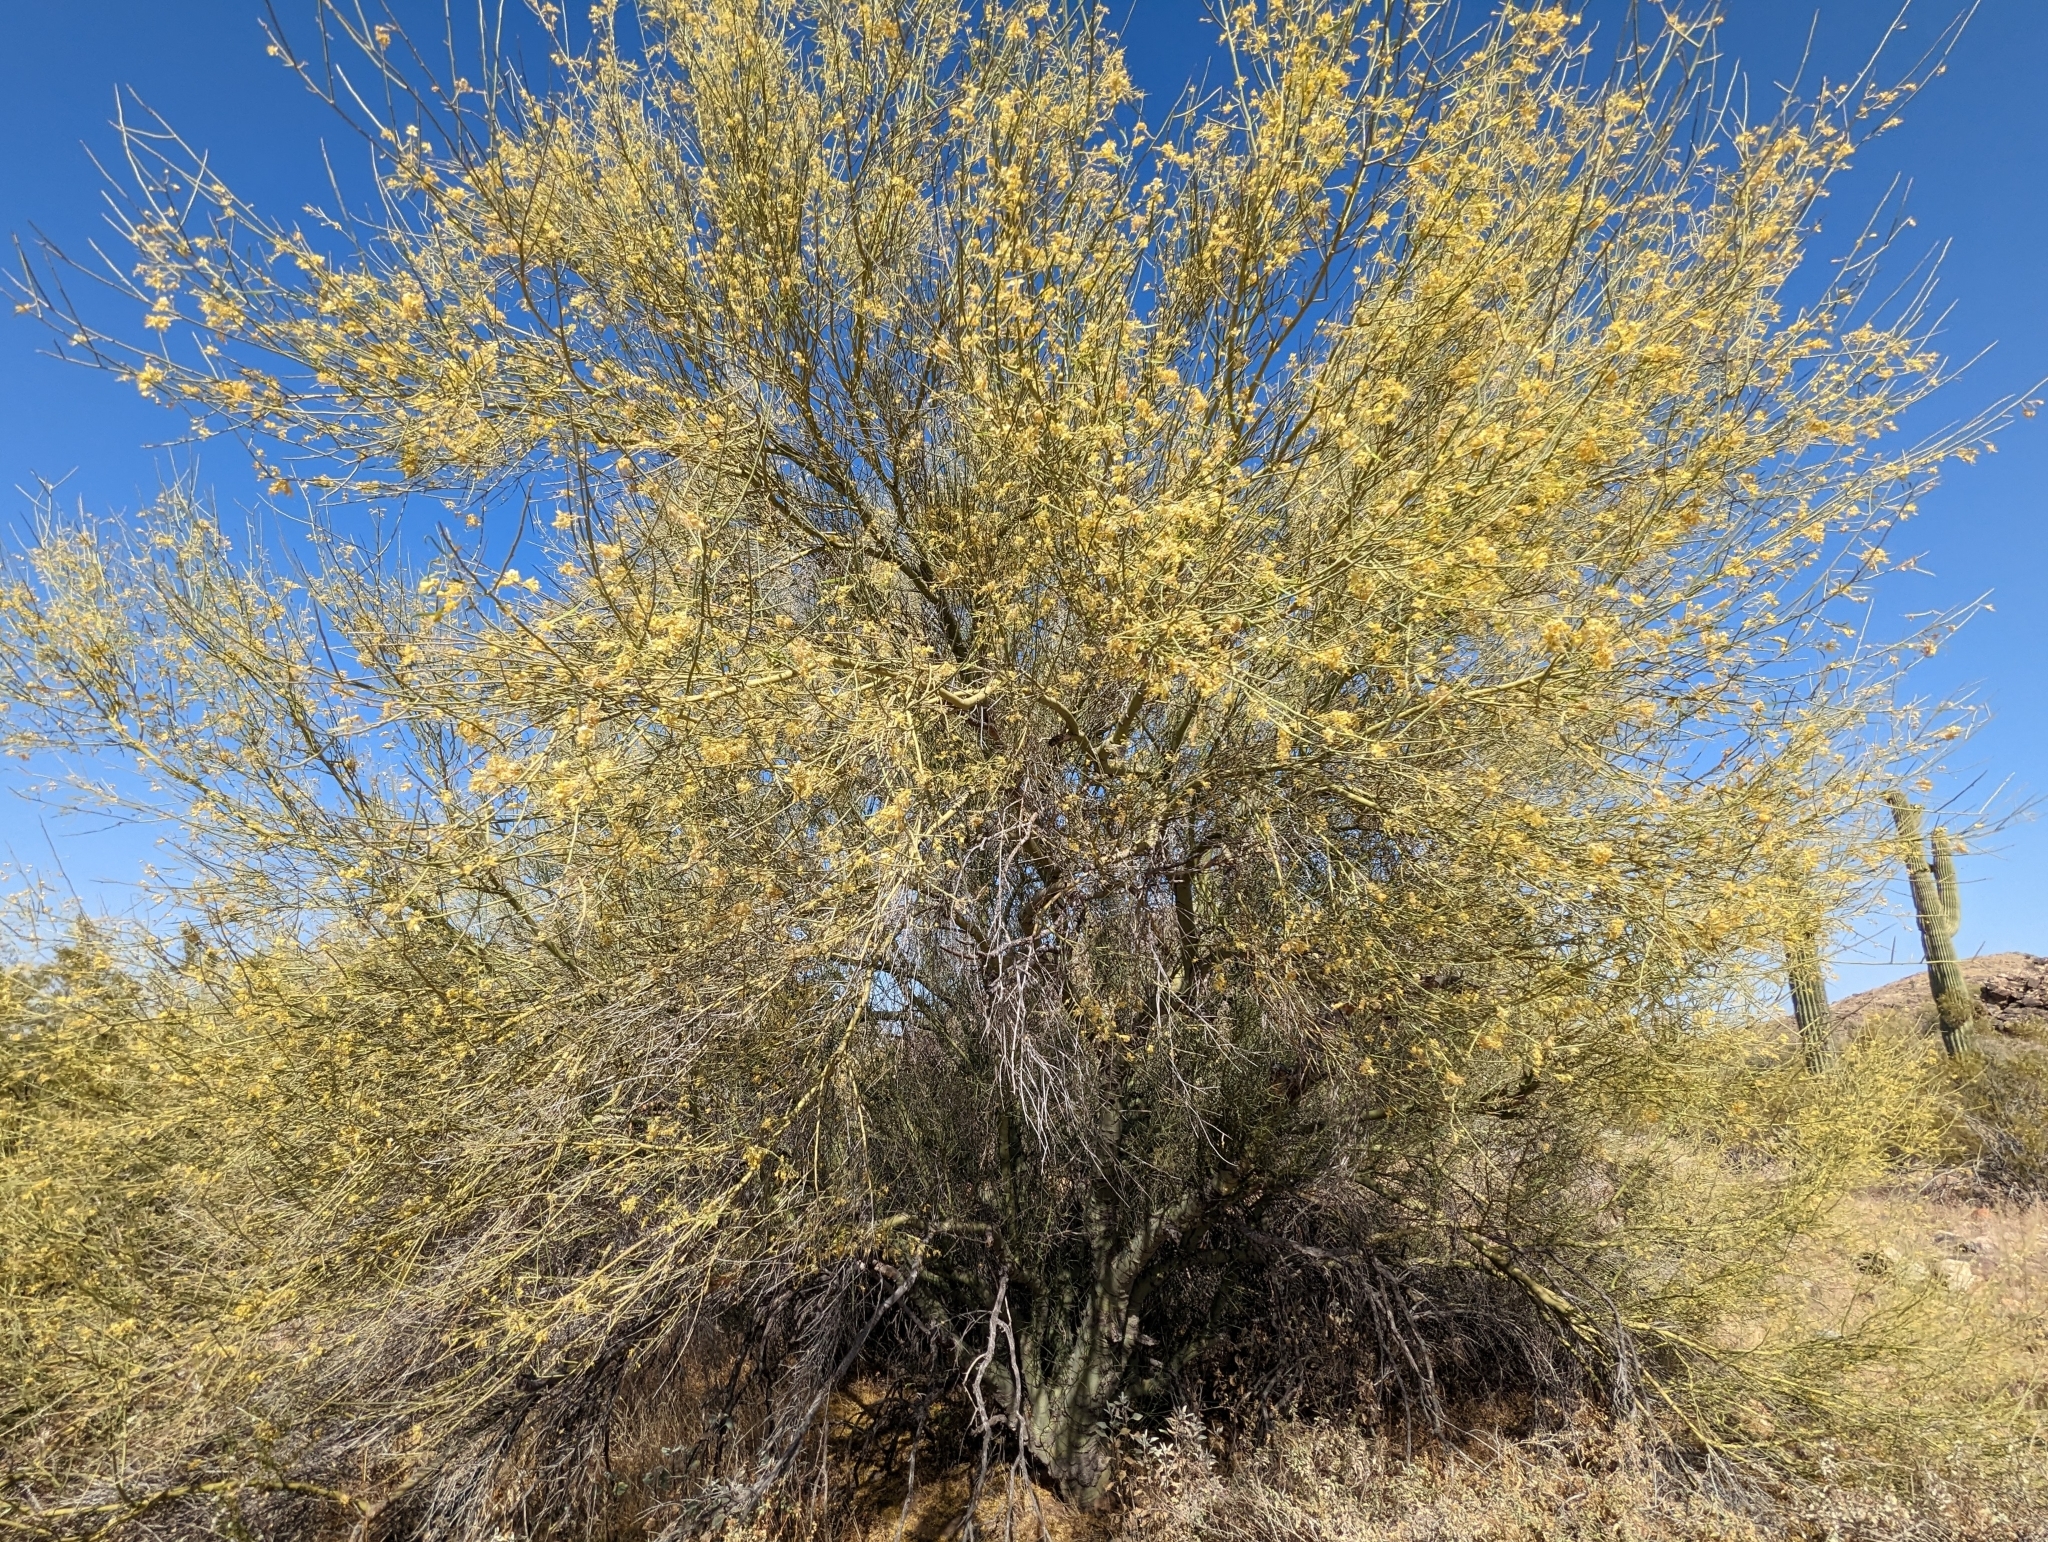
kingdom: Plantae
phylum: Tracheophyta
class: Magnoliopsida
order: Fabales
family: Fabaceae
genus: Parkinsonia
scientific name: Parkinsonia microphylla
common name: Yellow paloverde
